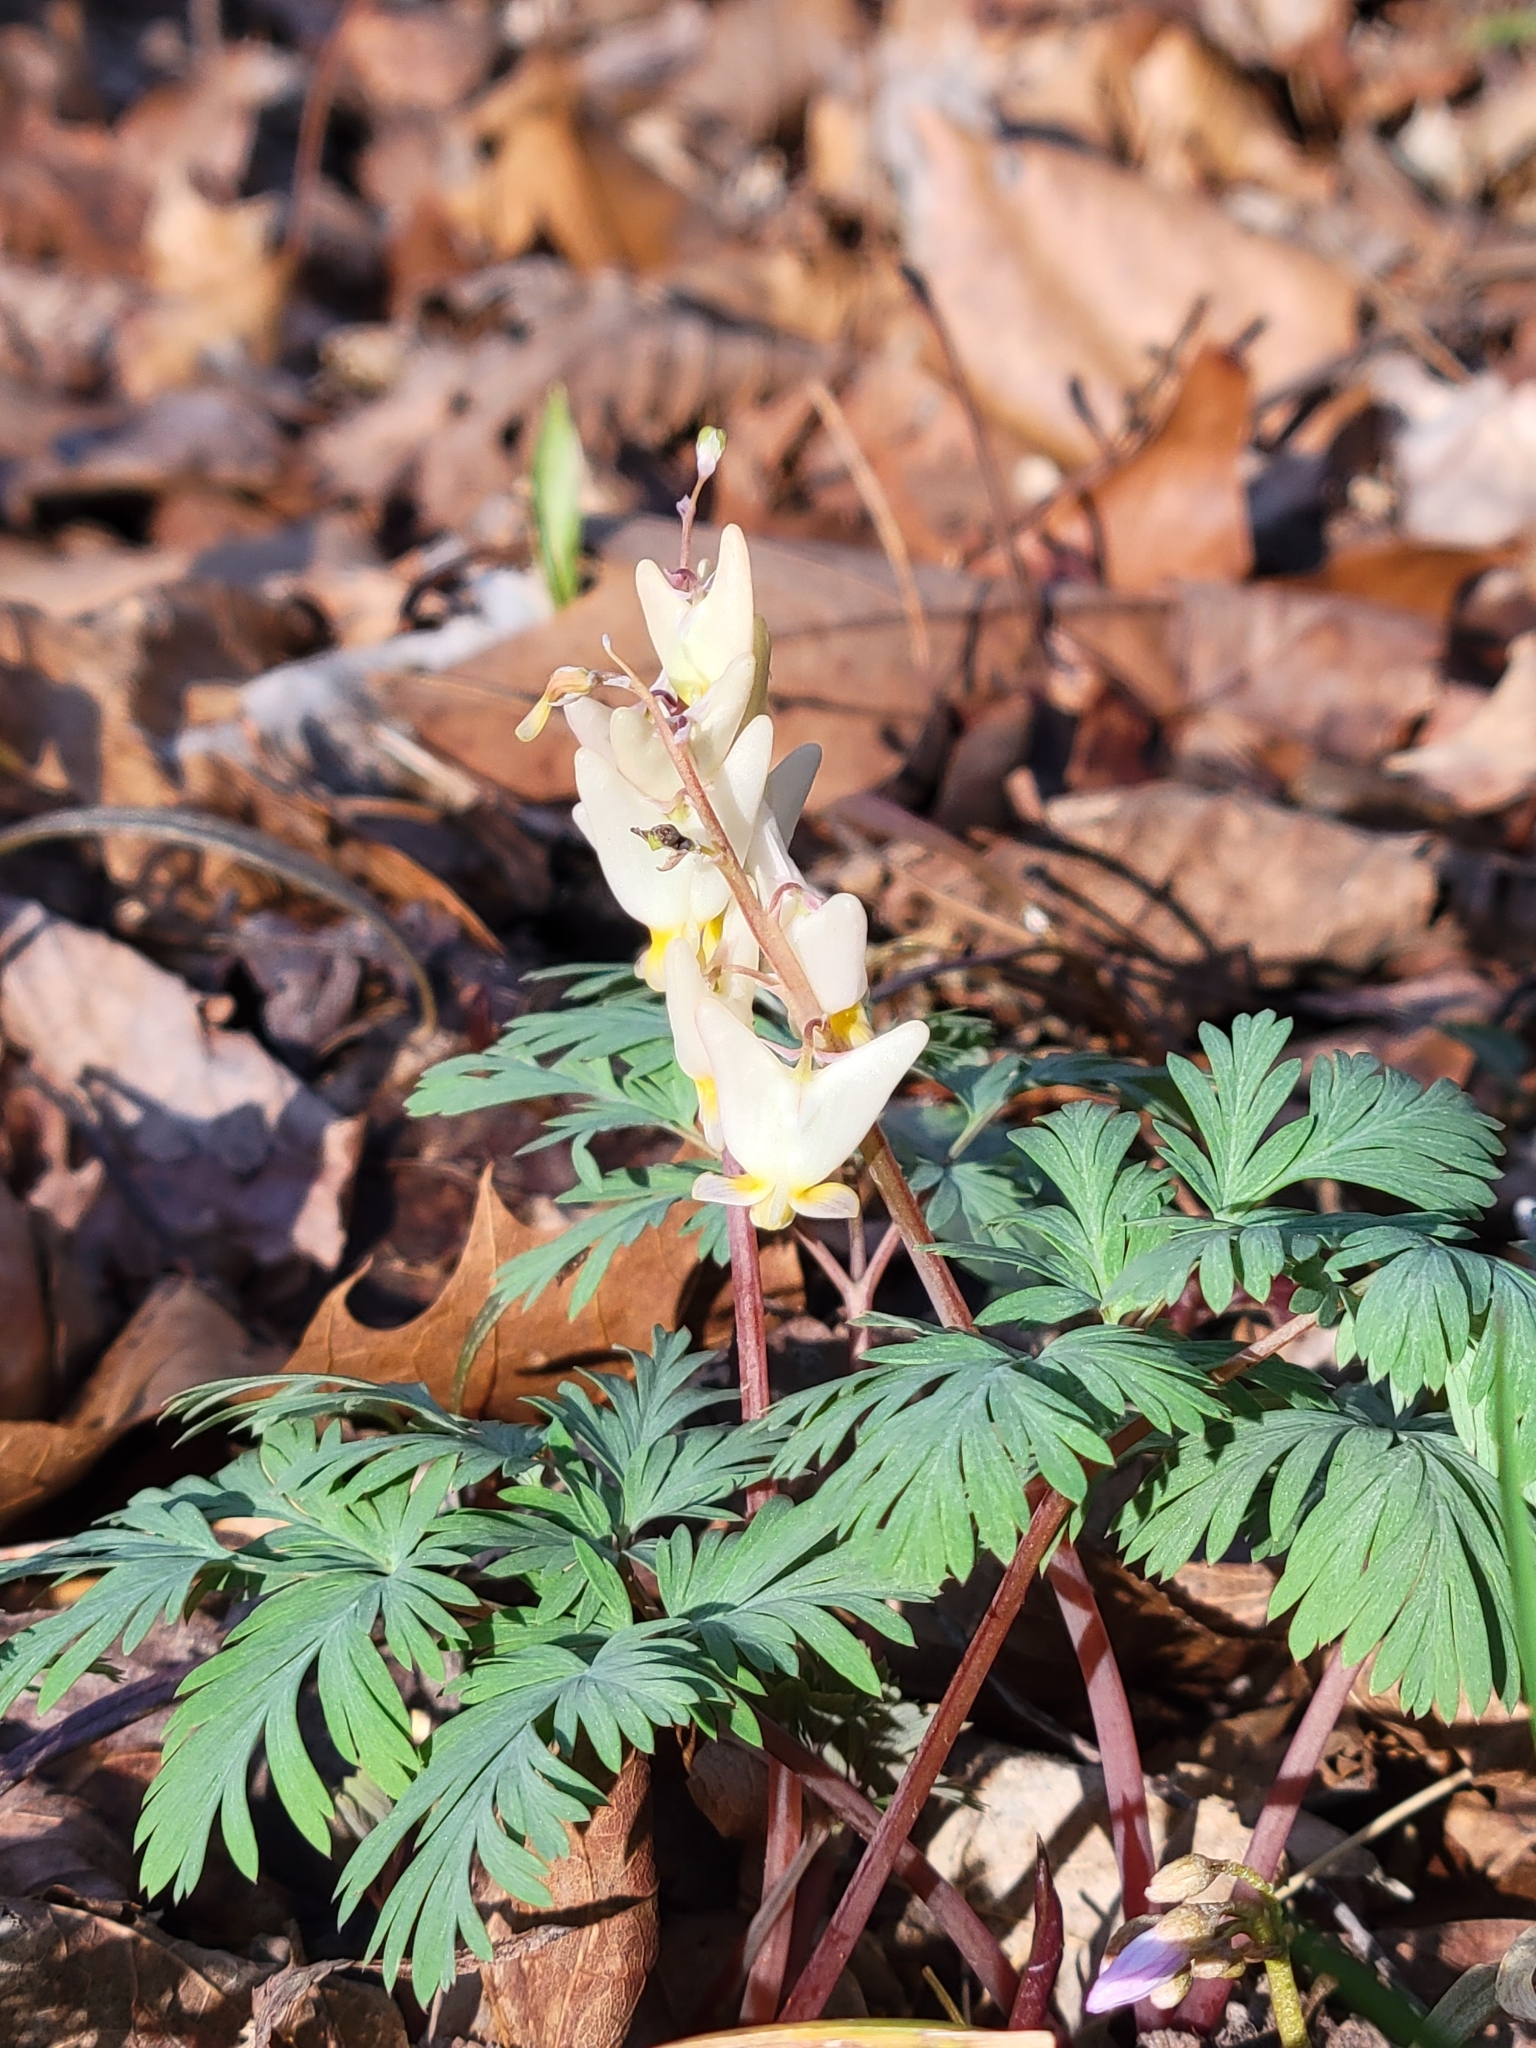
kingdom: Plantae
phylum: Tracheophyta
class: Magnoliopsida
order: Ranunculales
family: Papaveraceae
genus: Dicentra
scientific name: Dicentra cucullaria
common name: Dutchman's breeches
